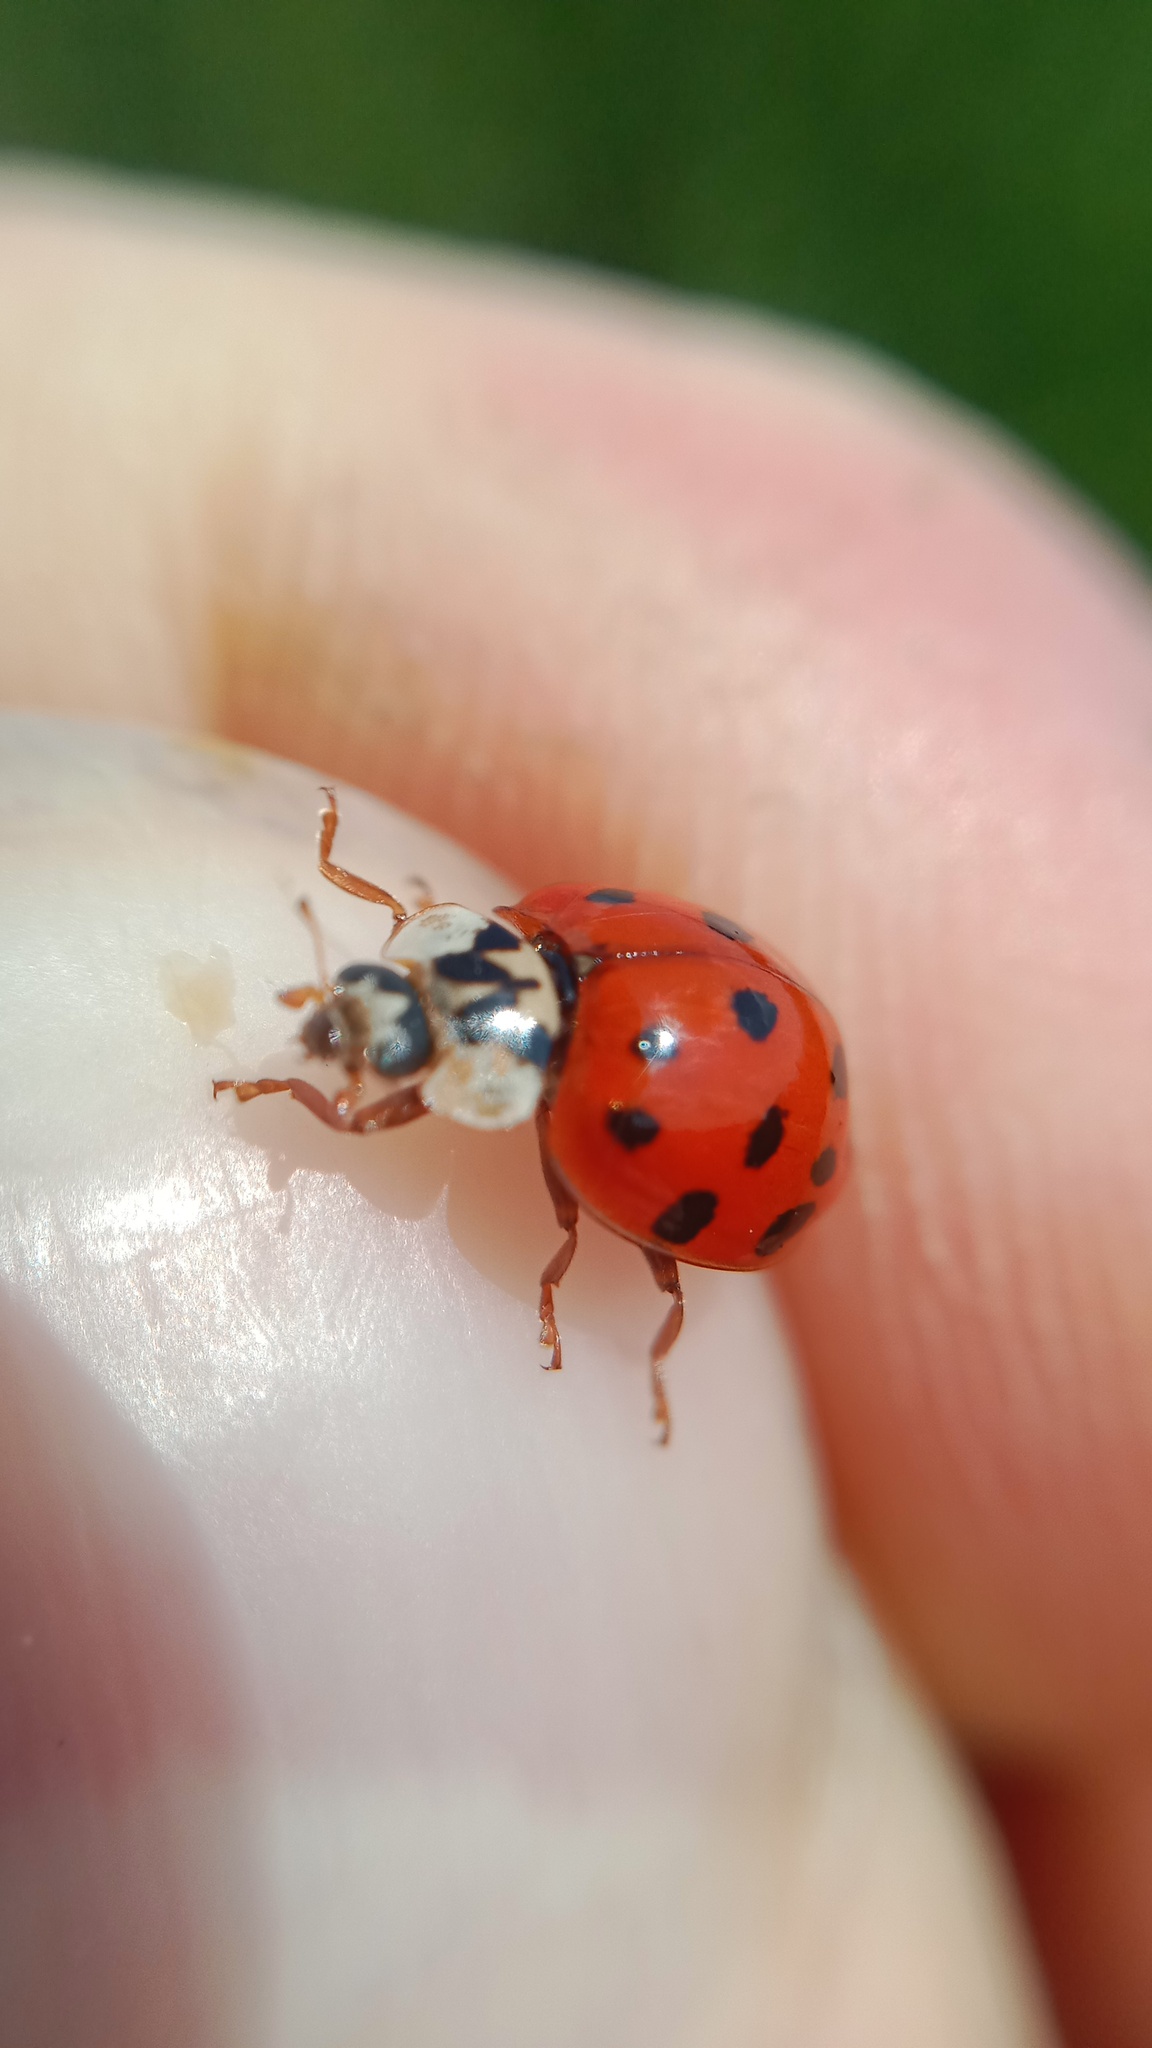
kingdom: Animalia
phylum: Arthropoda
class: Insecta
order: Coleoptera
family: Coccinellidae
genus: Harmonia
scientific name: Harmonia axyridis
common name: Harlequin ladybird
